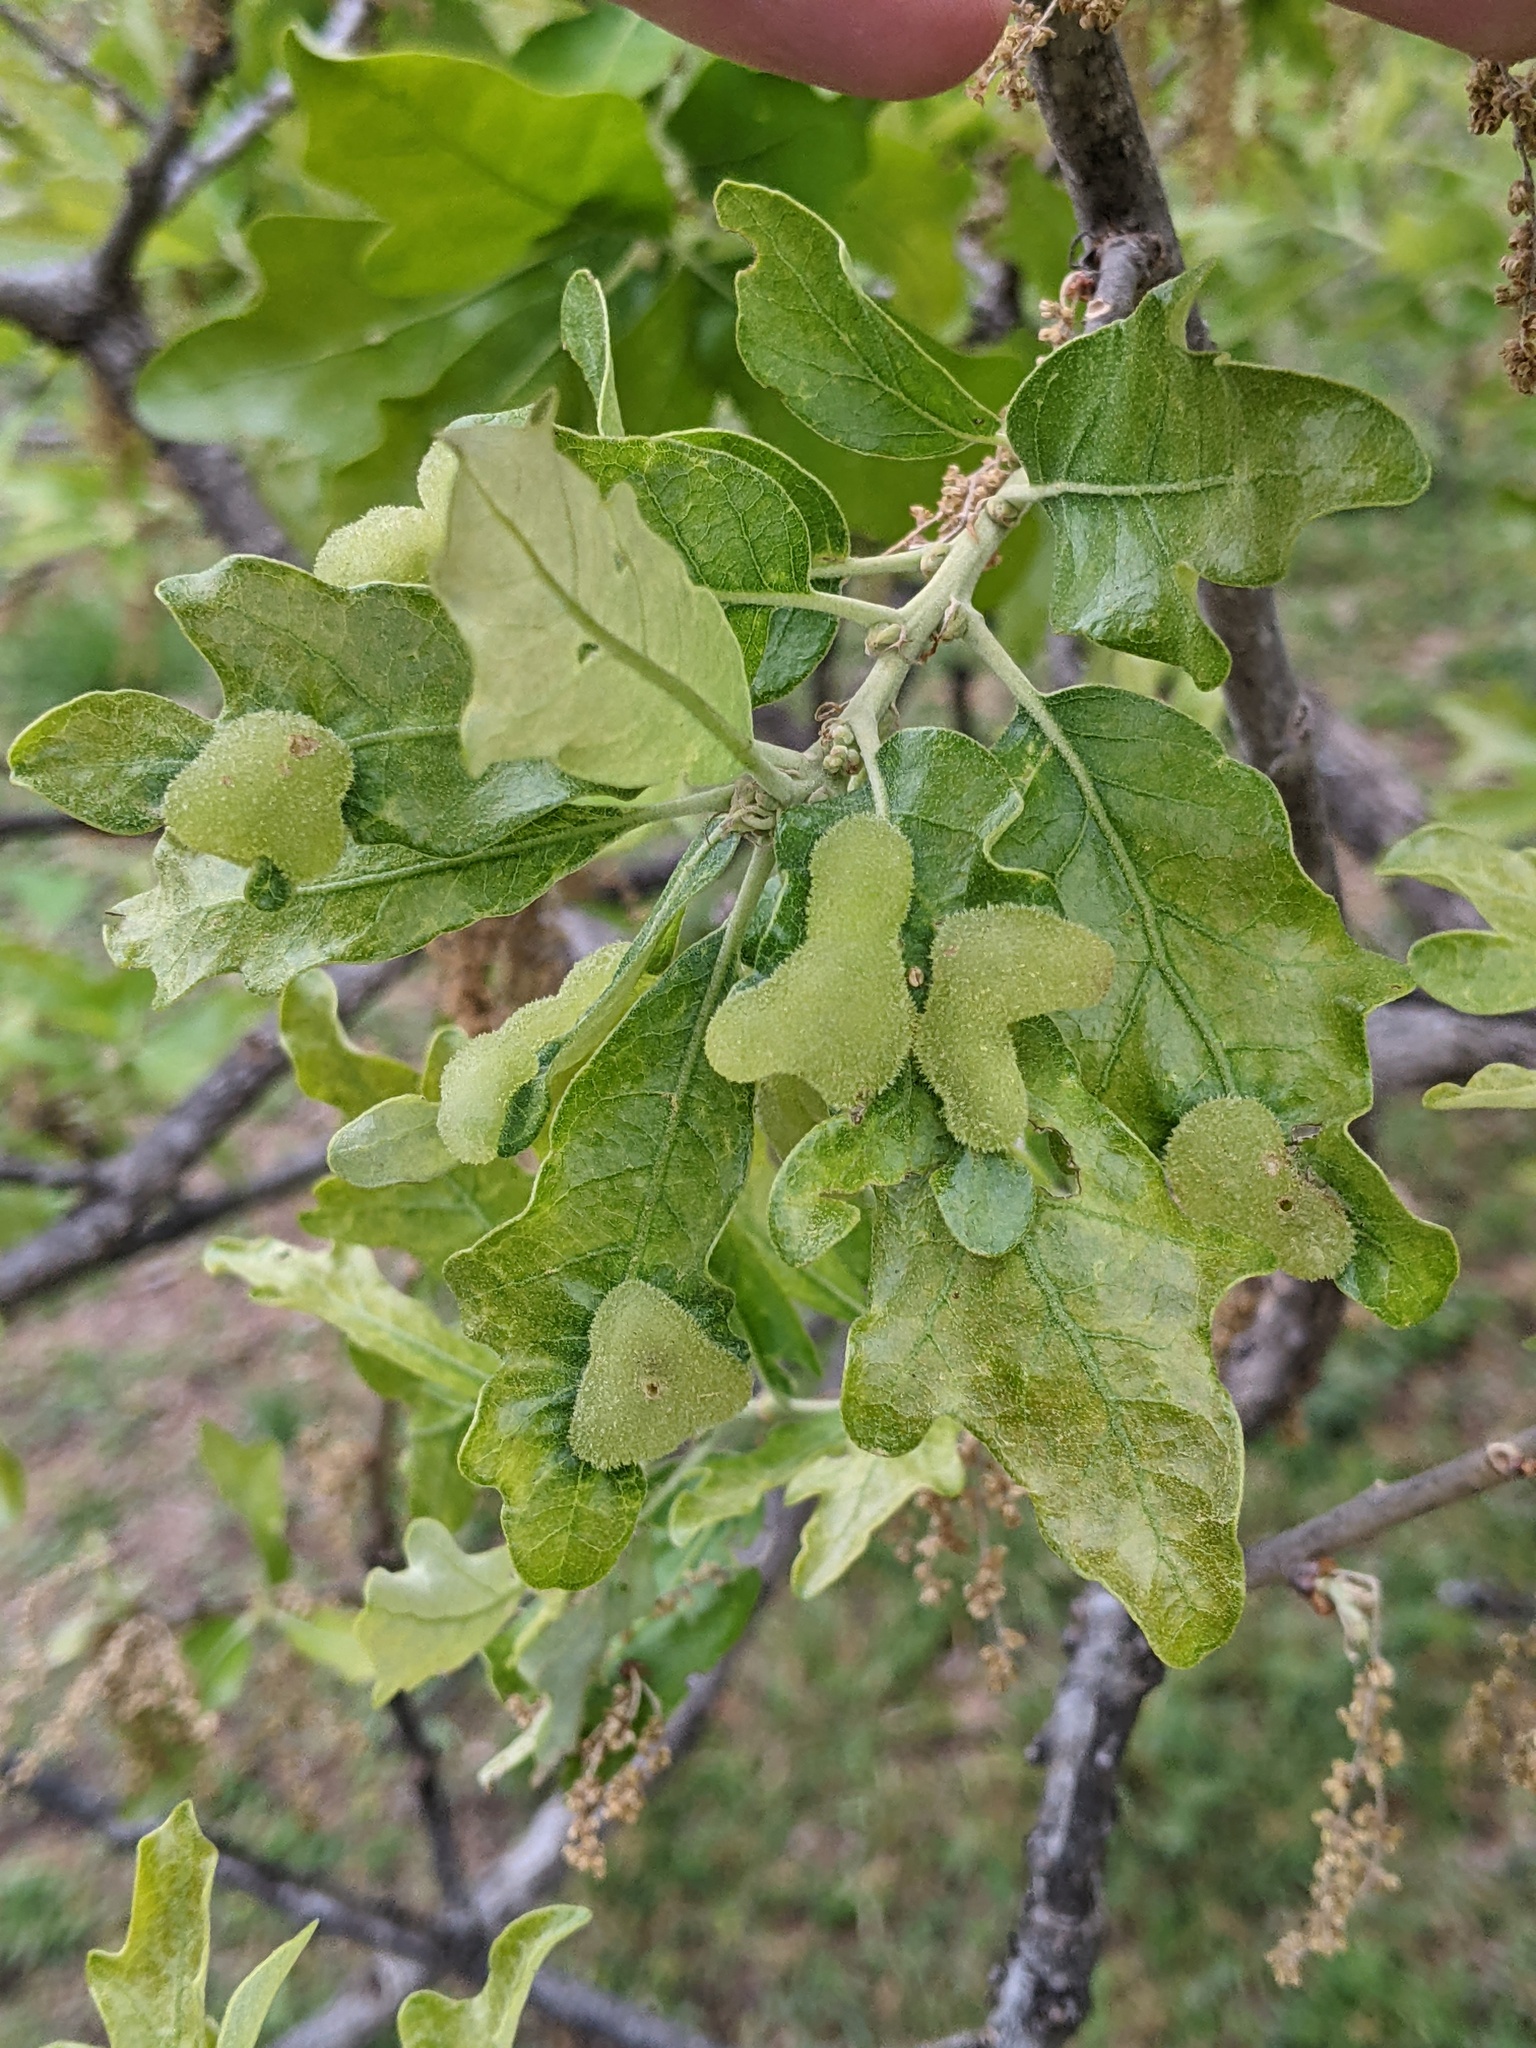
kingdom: Animalia
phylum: Arthropoda
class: Insecta
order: Hymenoptera
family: Cynipidae
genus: Neuroterus
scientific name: Neuroterus quercusirregularis
